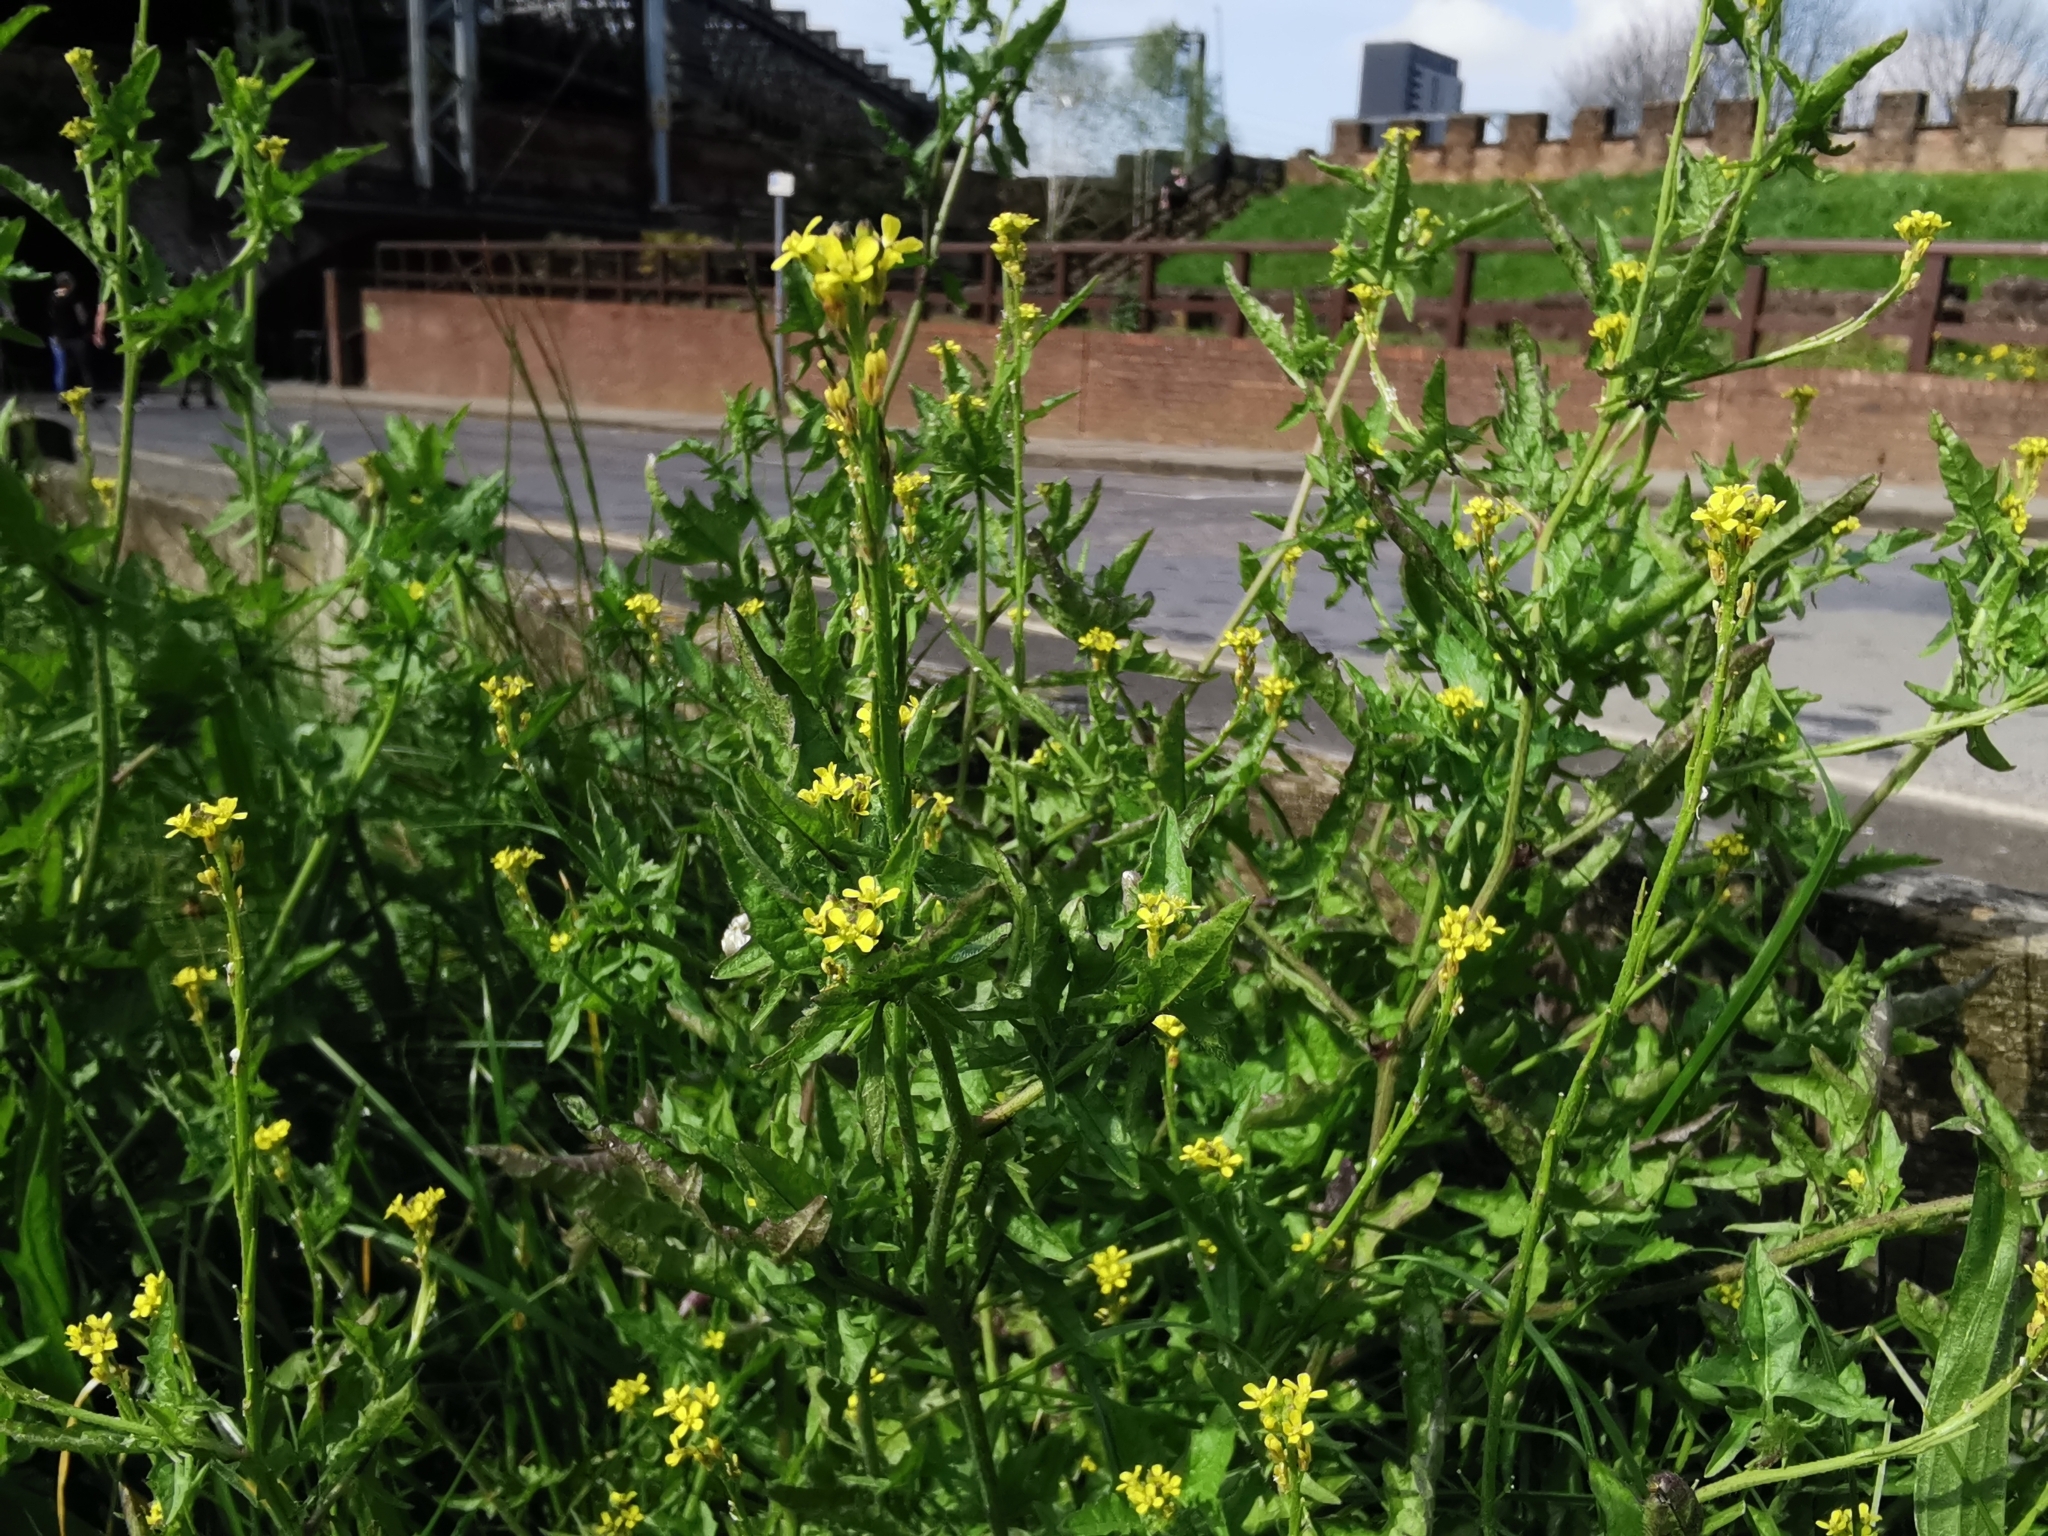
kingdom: Plantae
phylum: Tracheophyta
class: Magnoliopsida
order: Brassicales
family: Brassicaceae
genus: Sisymbrium
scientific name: Sisymbrium officinale
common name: Hedge mustard
